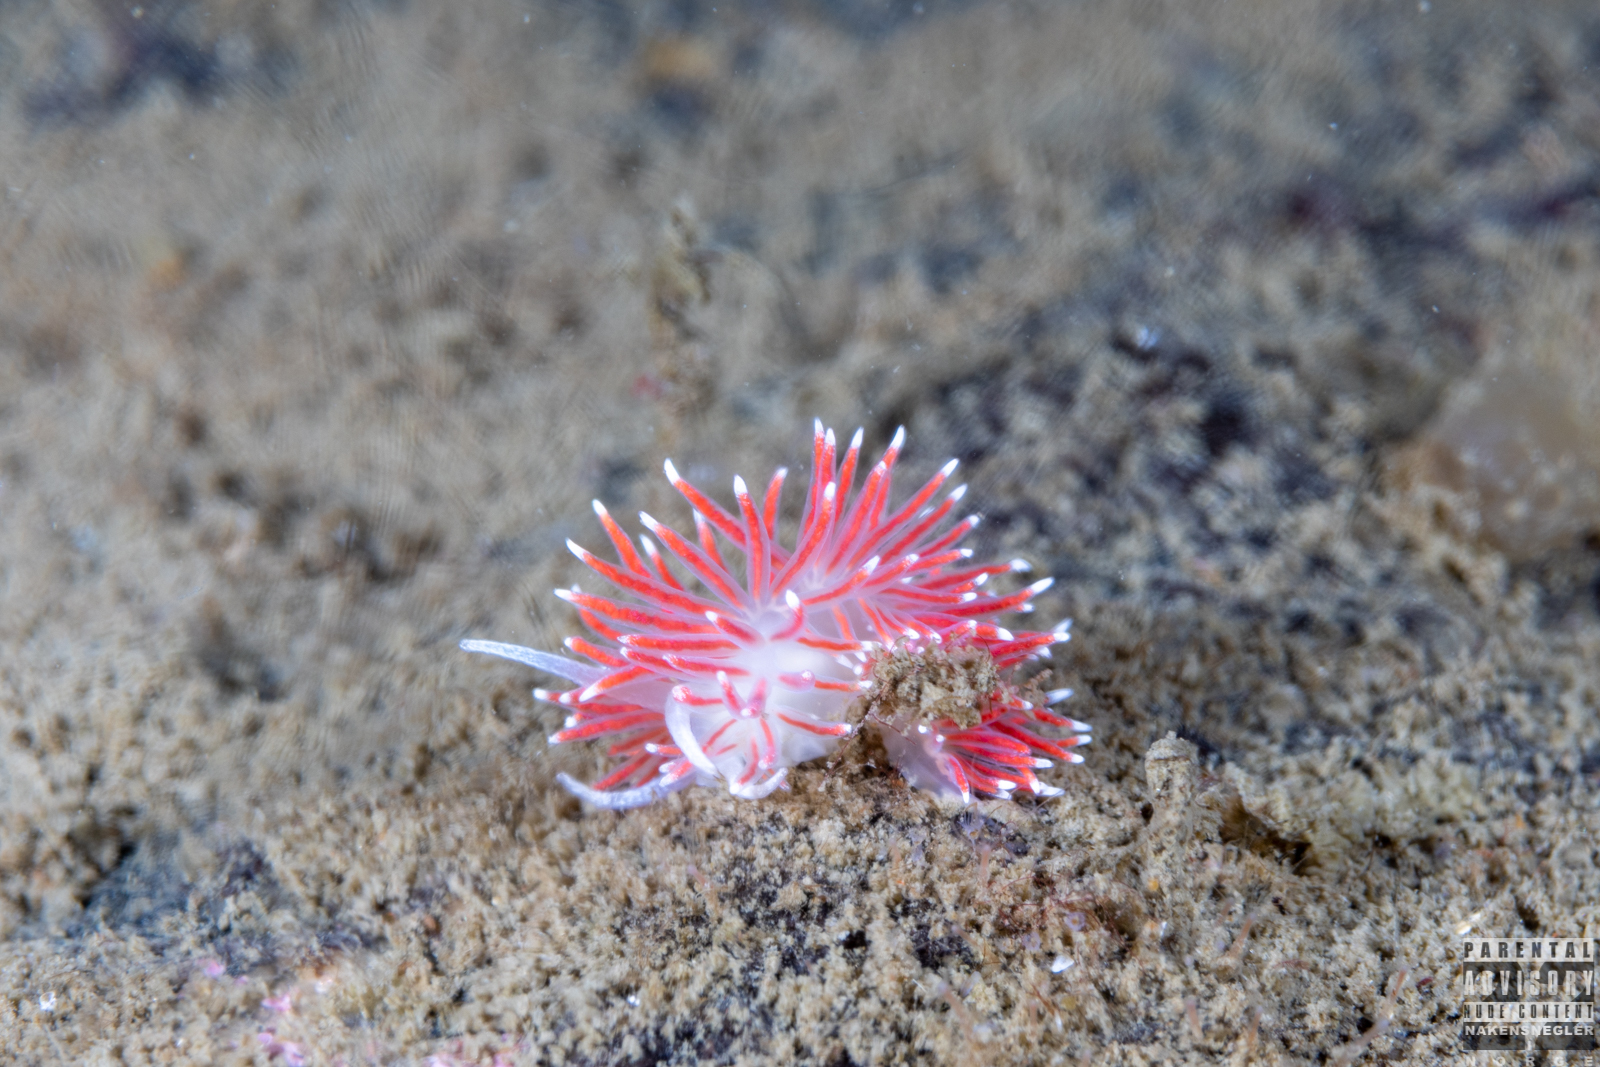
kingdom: Animalia
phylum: Mollusca
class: Gastropoda
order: Nudibranchia
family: Flabellinidae
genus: Carronella
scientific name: Carronella pellucida
